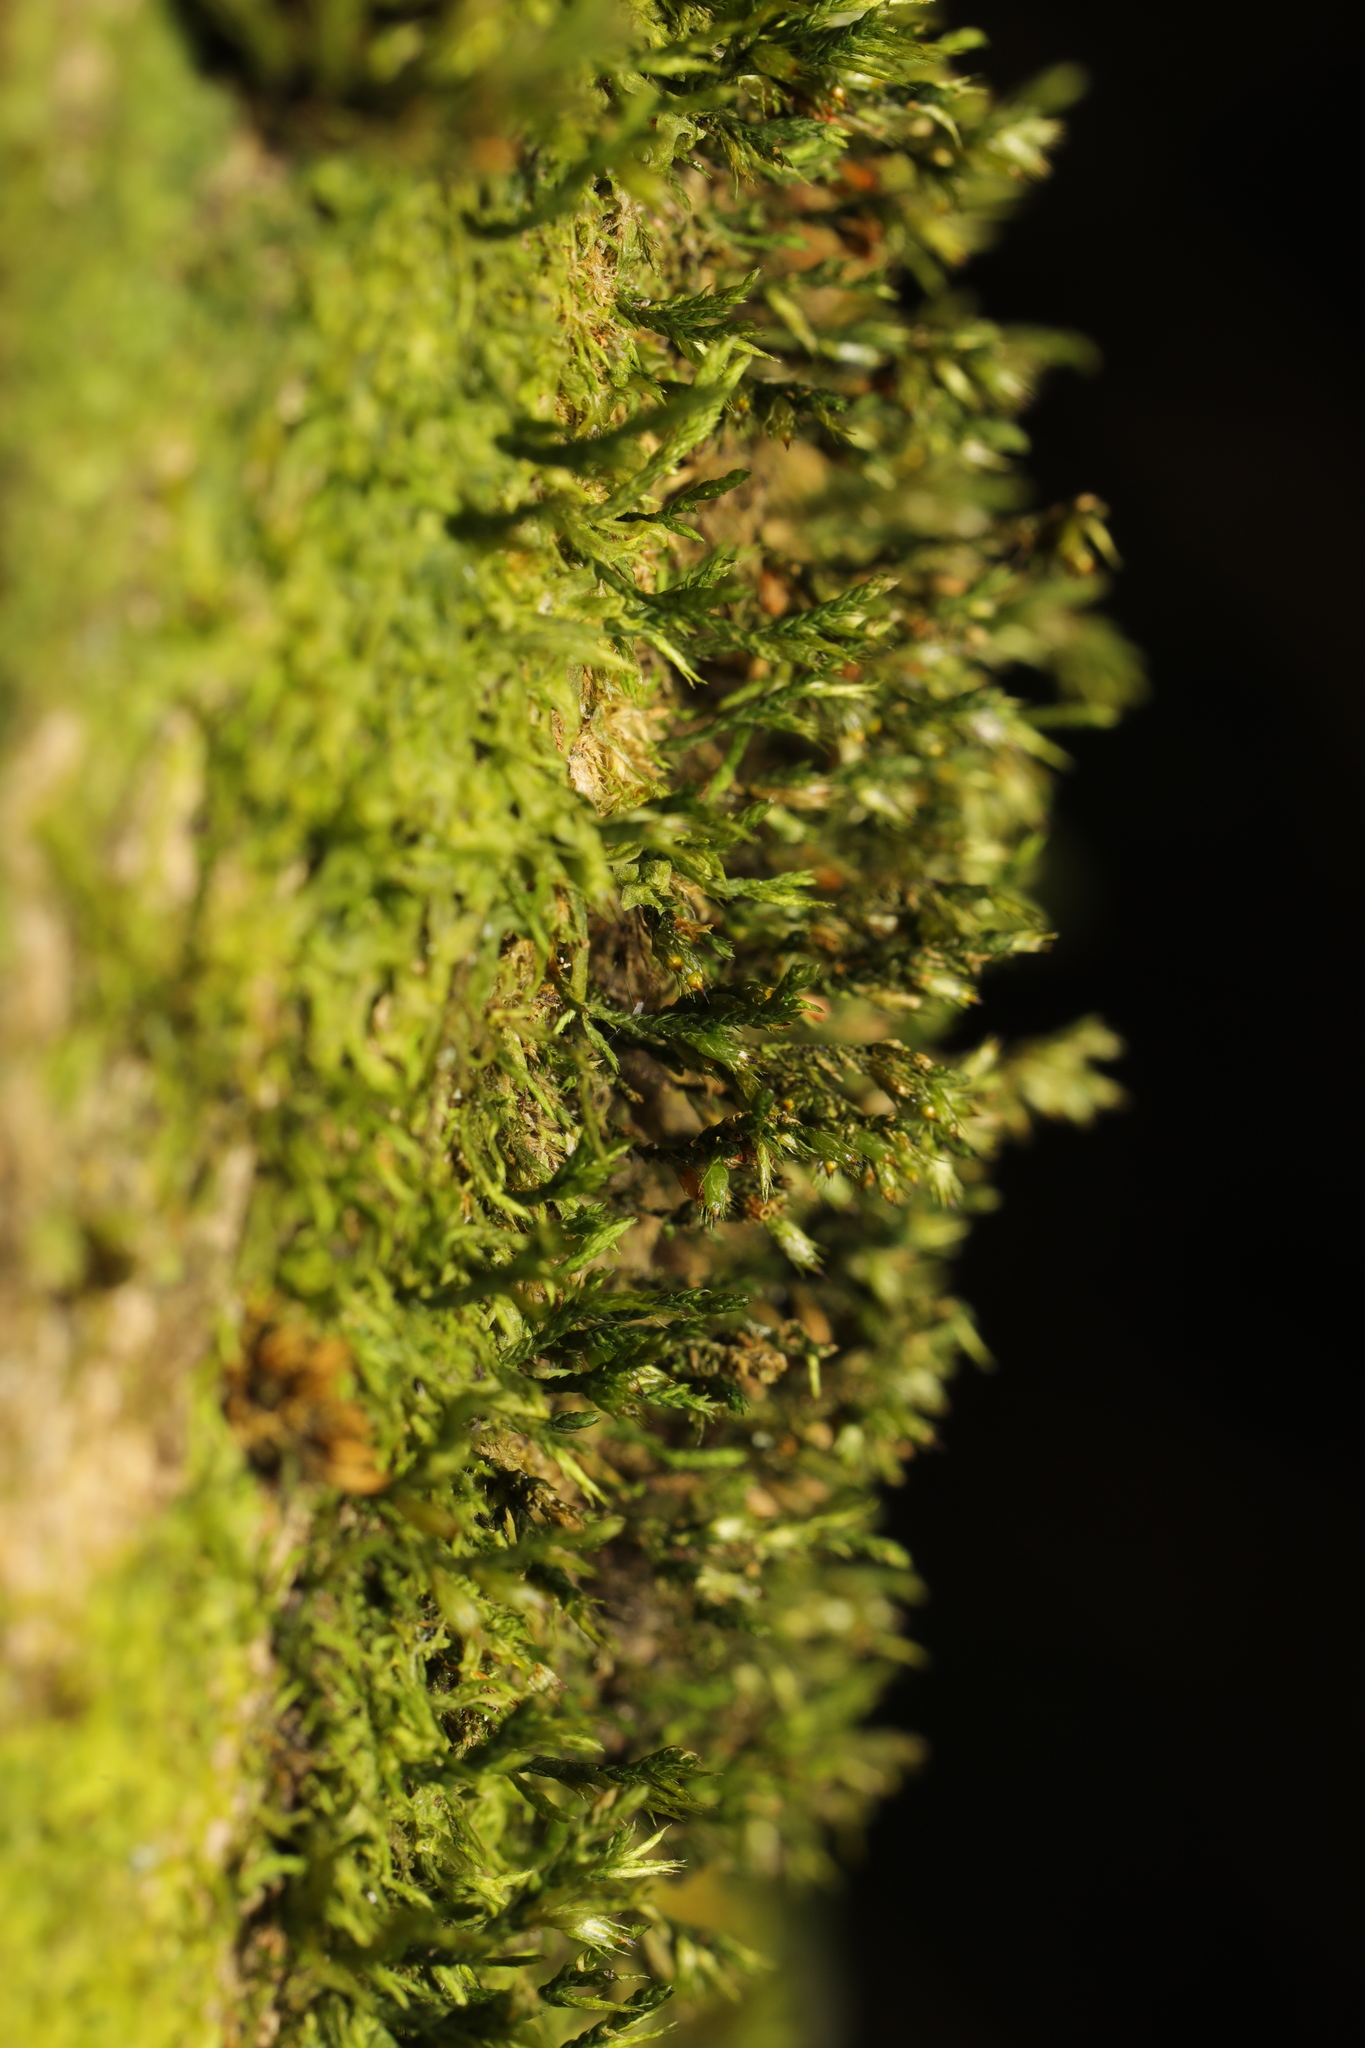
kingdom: Plantae
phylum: Bryophyta
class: Bryopsida
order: Hypnales
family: Cryphaeaceae
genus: Cryphaea
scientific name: Cryphaea heteromalla
